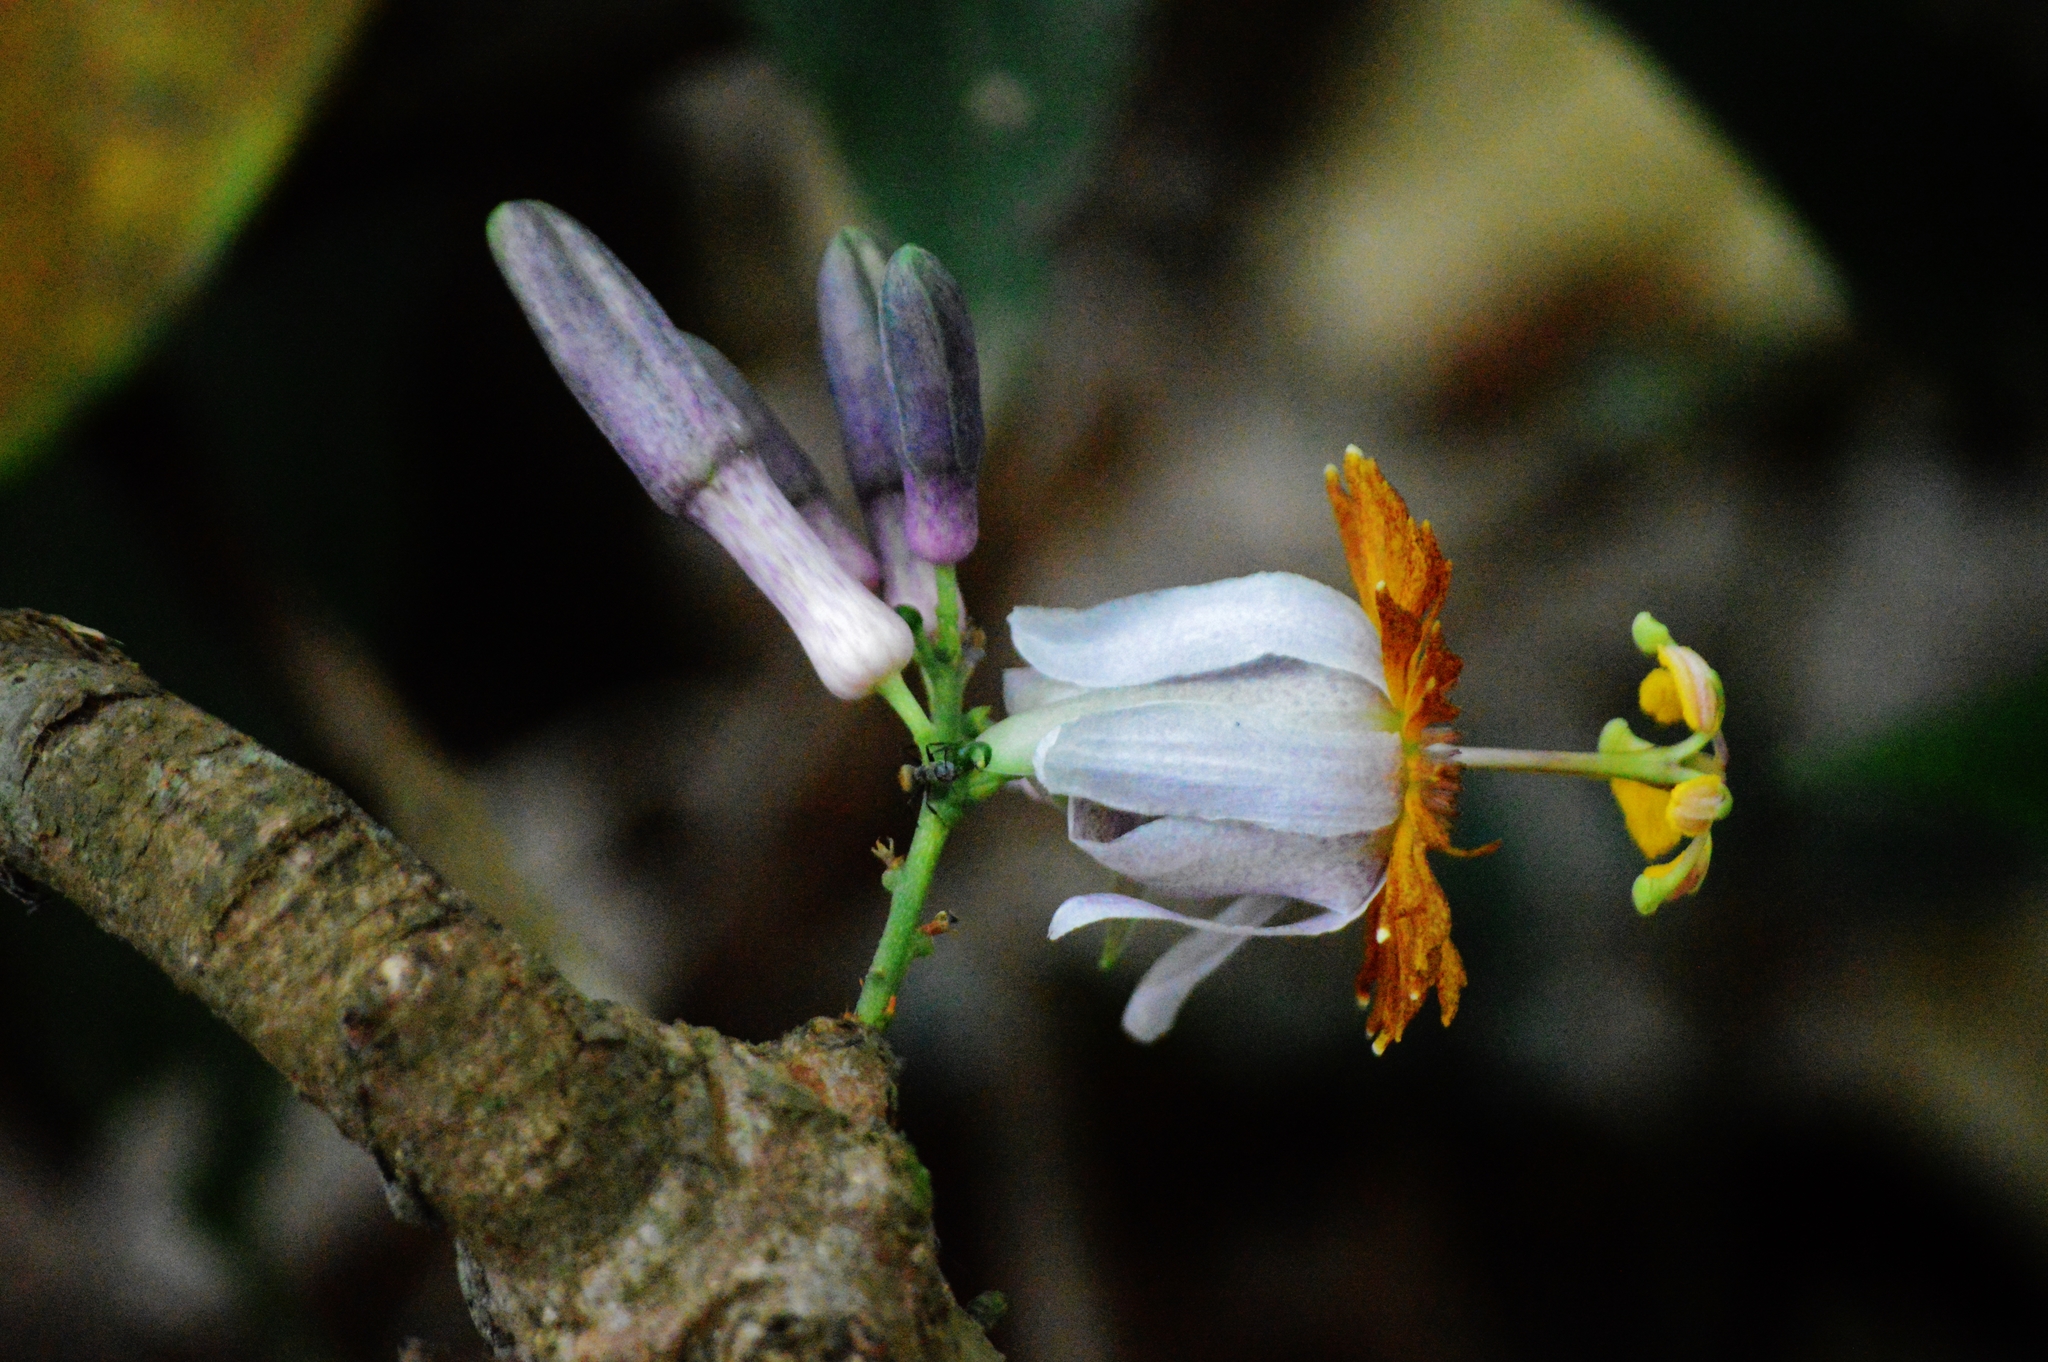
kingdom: Plantae
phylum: Tracheophyta
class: Magnoliopsida
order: Malpighiales
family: Passifloraceae
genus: Passiflora
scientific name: Passiflora cerradensis
